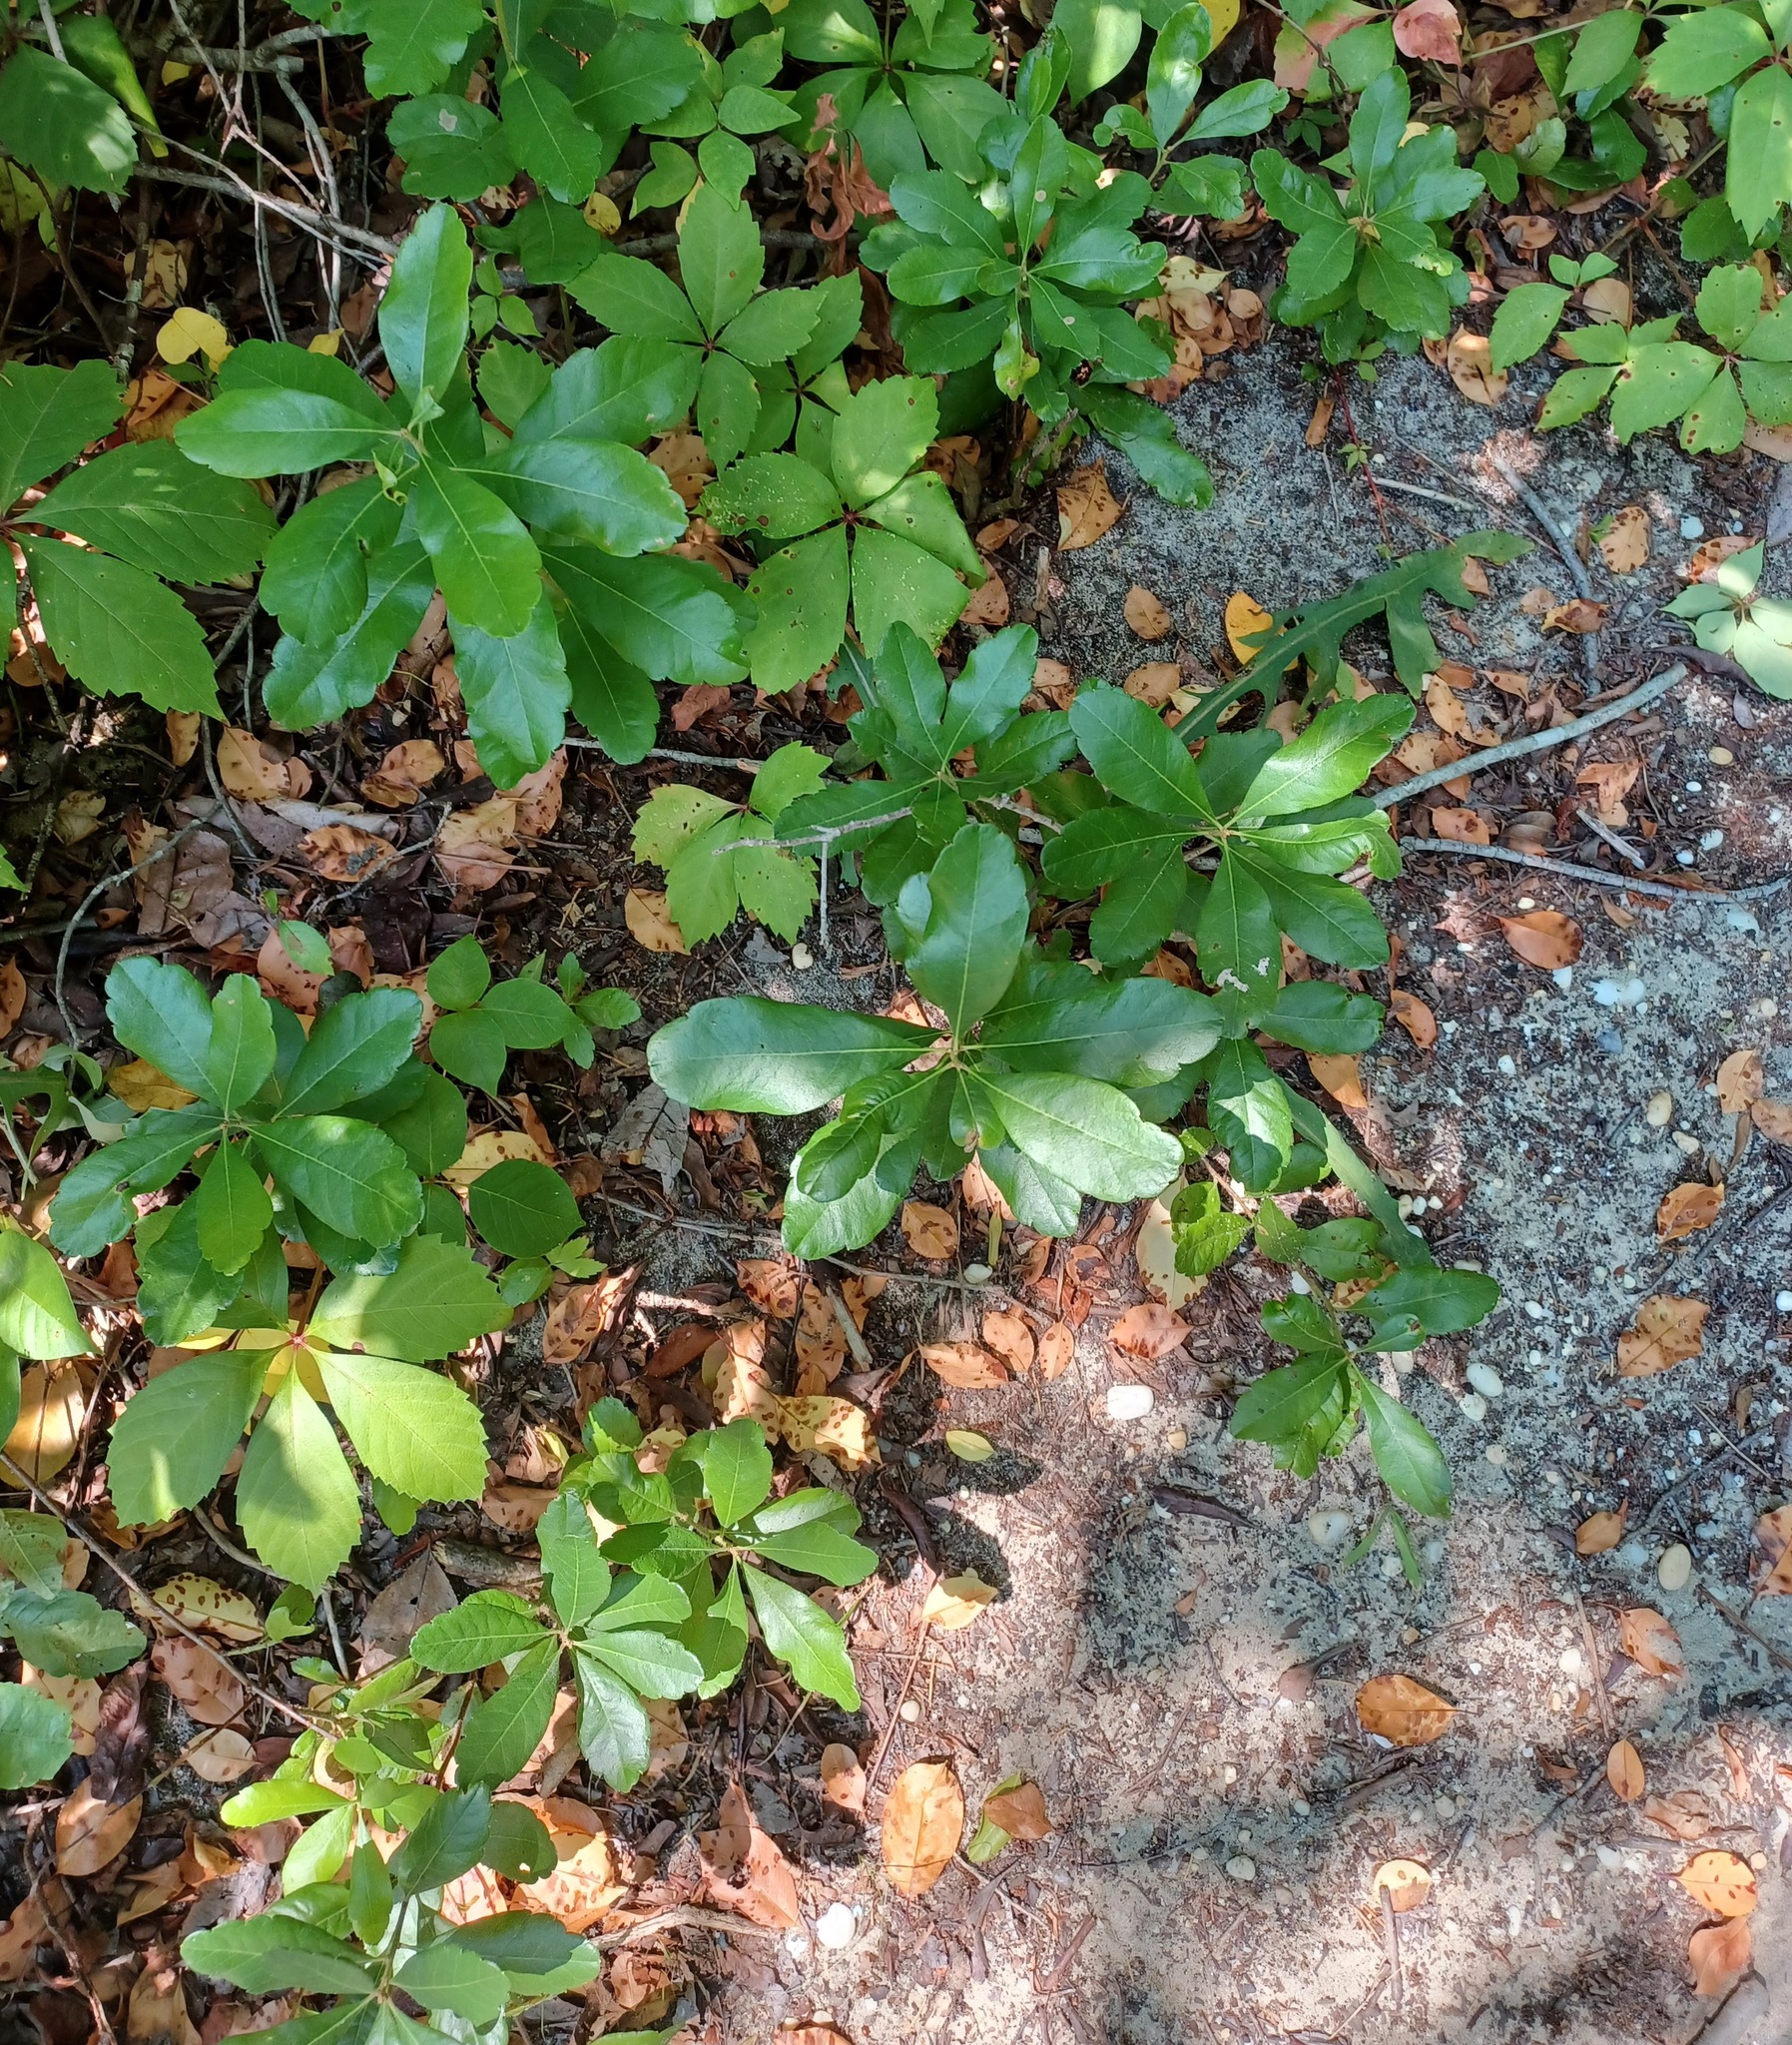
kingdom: Plantae
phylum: Tracheophyta
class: Magnoliopsida
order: Fagales
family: Myricaceae
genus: Morella
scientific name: Morella pensylvanica
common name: Northern bayberry
